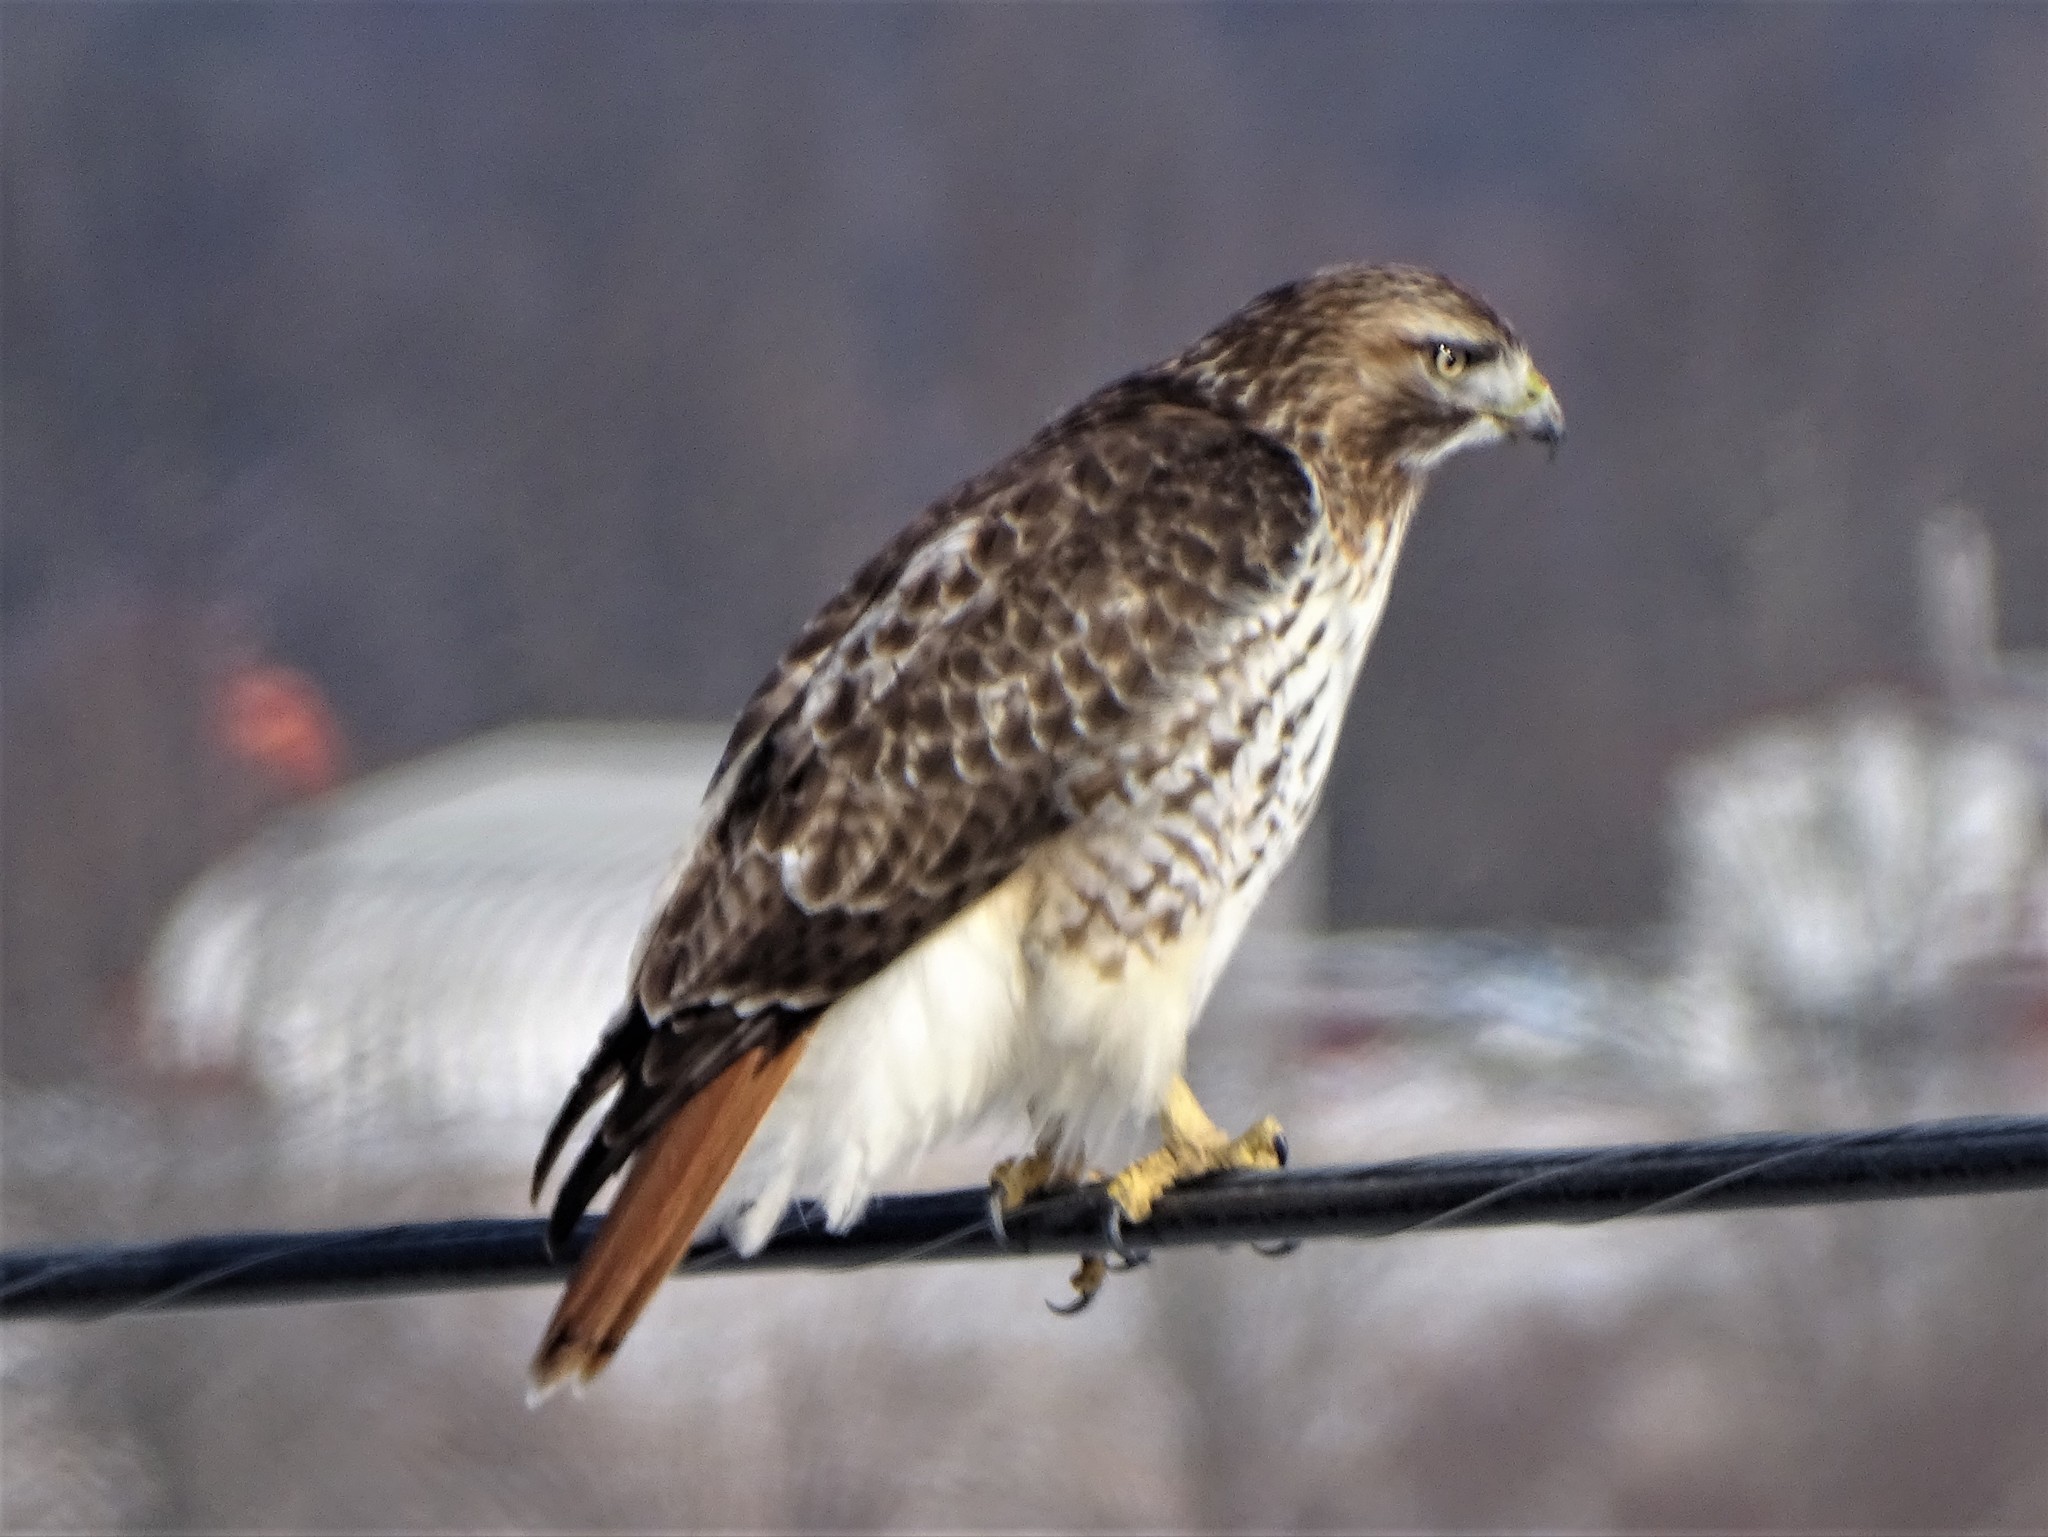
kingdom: Animalia
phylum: Chordata
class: Aves
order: Accipitriformes
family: Accipitridae
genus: Buteo
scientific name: Buteo jamaicensis
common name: Red-tailed hawk
